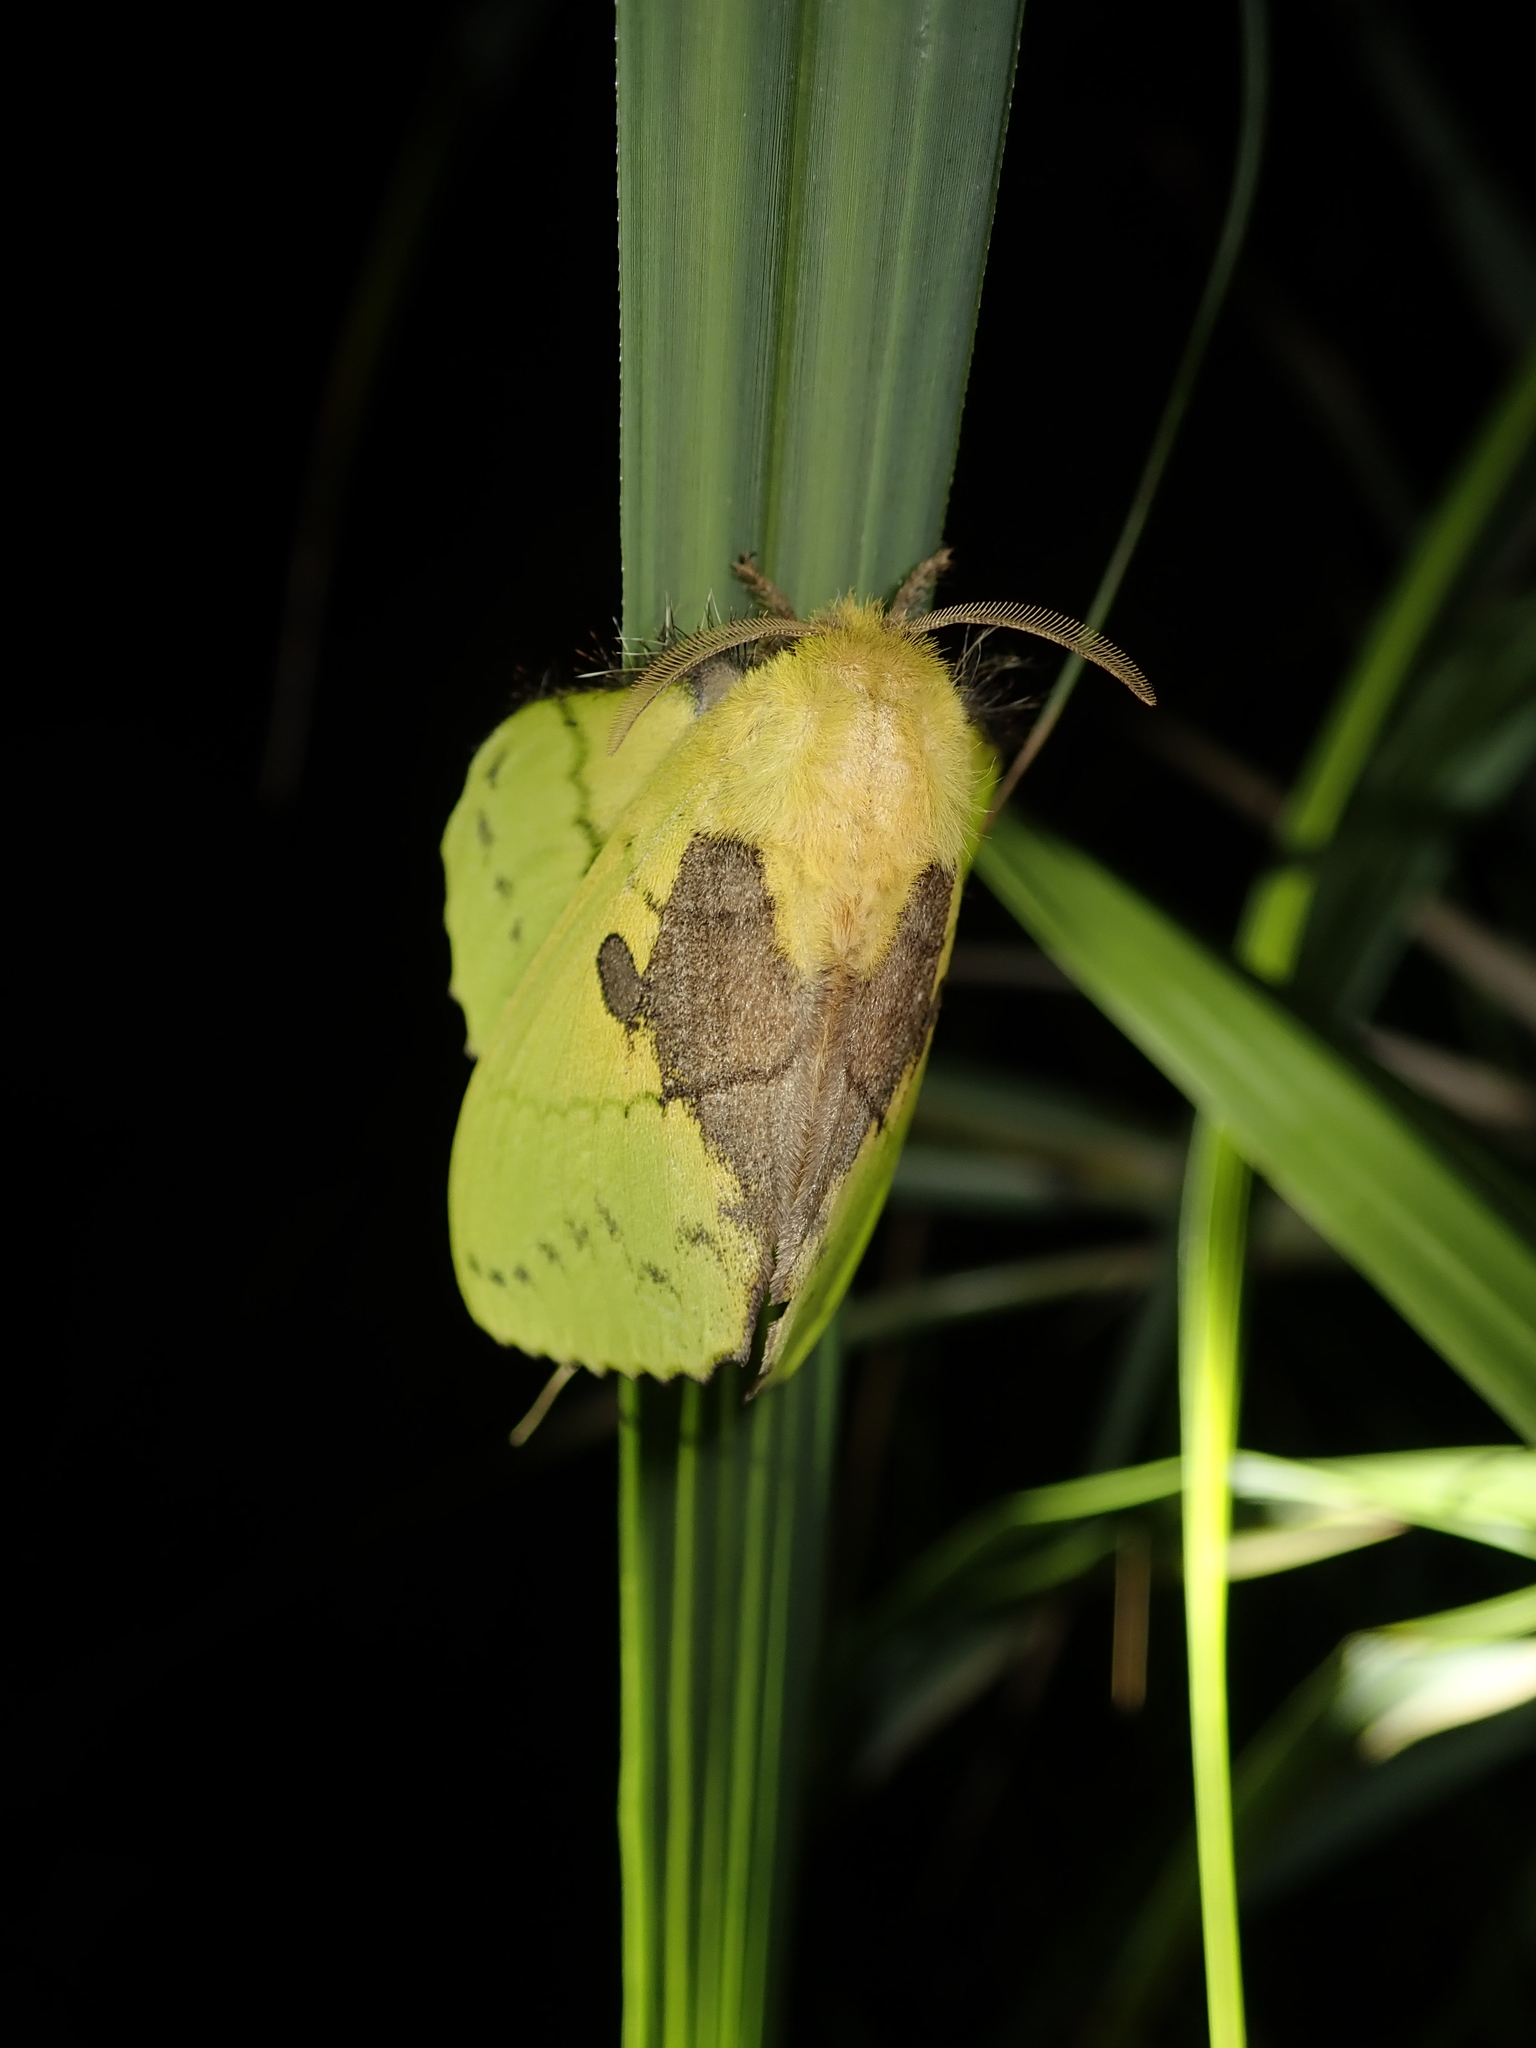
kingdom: Animalia
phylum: Arthropoda
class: Insecta
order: Lepidoptera
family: Lasiocampidae
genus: Trabala
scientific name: Trabala vishnou
